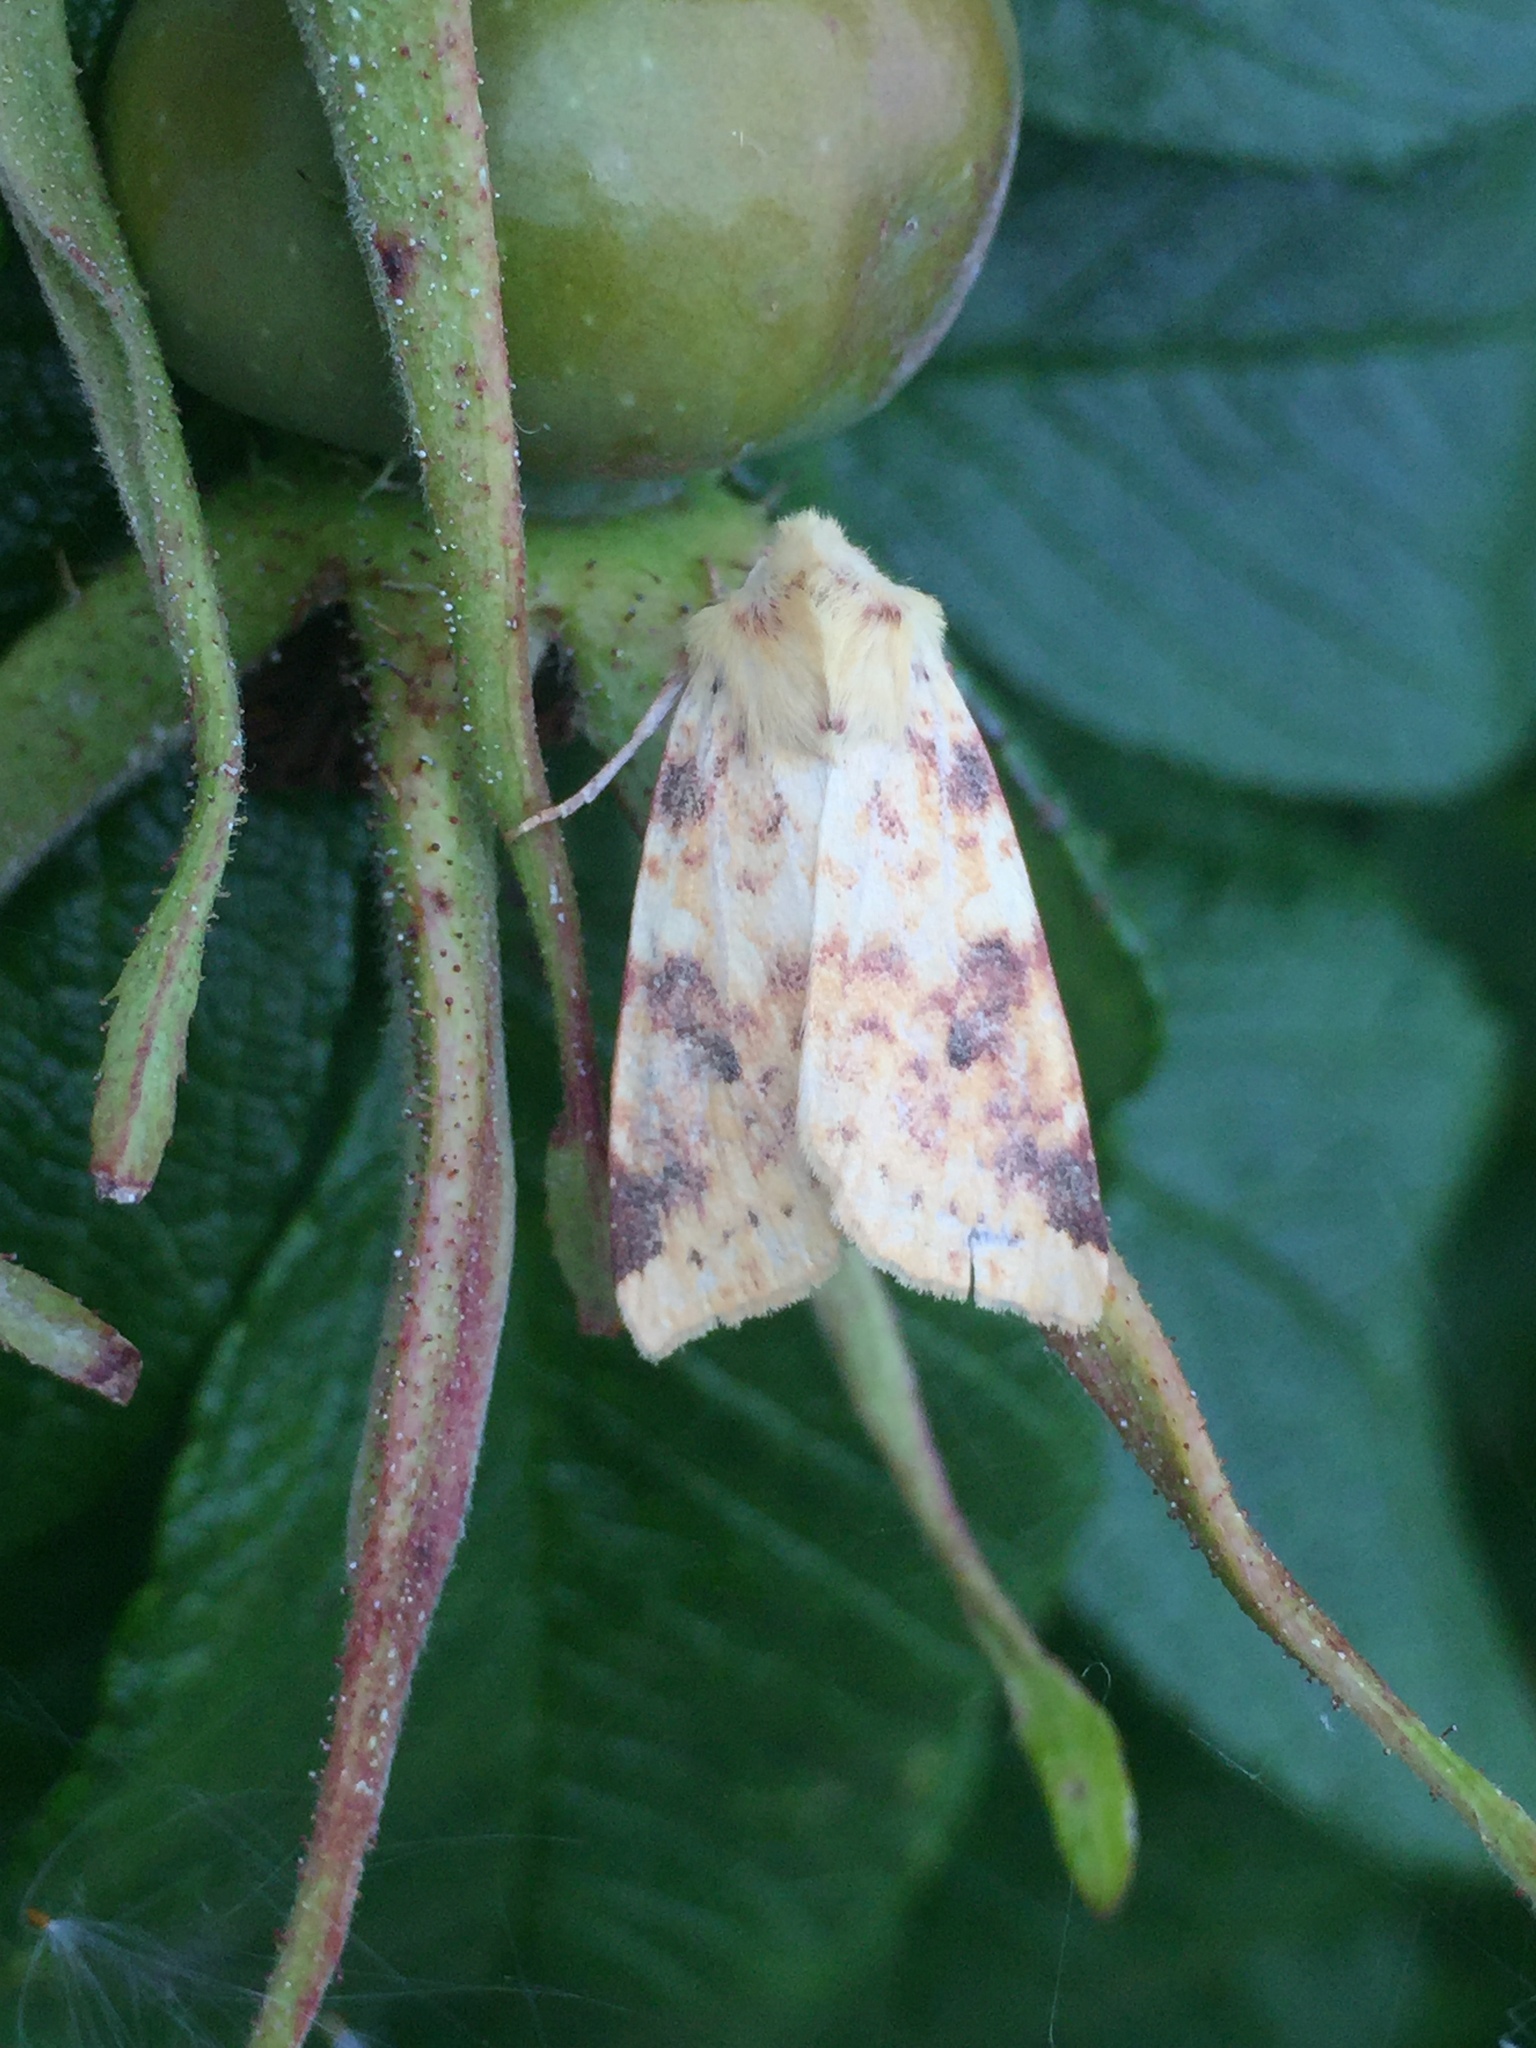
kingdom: Animalia
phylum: Arthropoda
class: Insecta
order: Lepidoptera
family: Noctuidae
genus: Xanthia
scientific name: Xanthia icteritia
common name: The sallow
